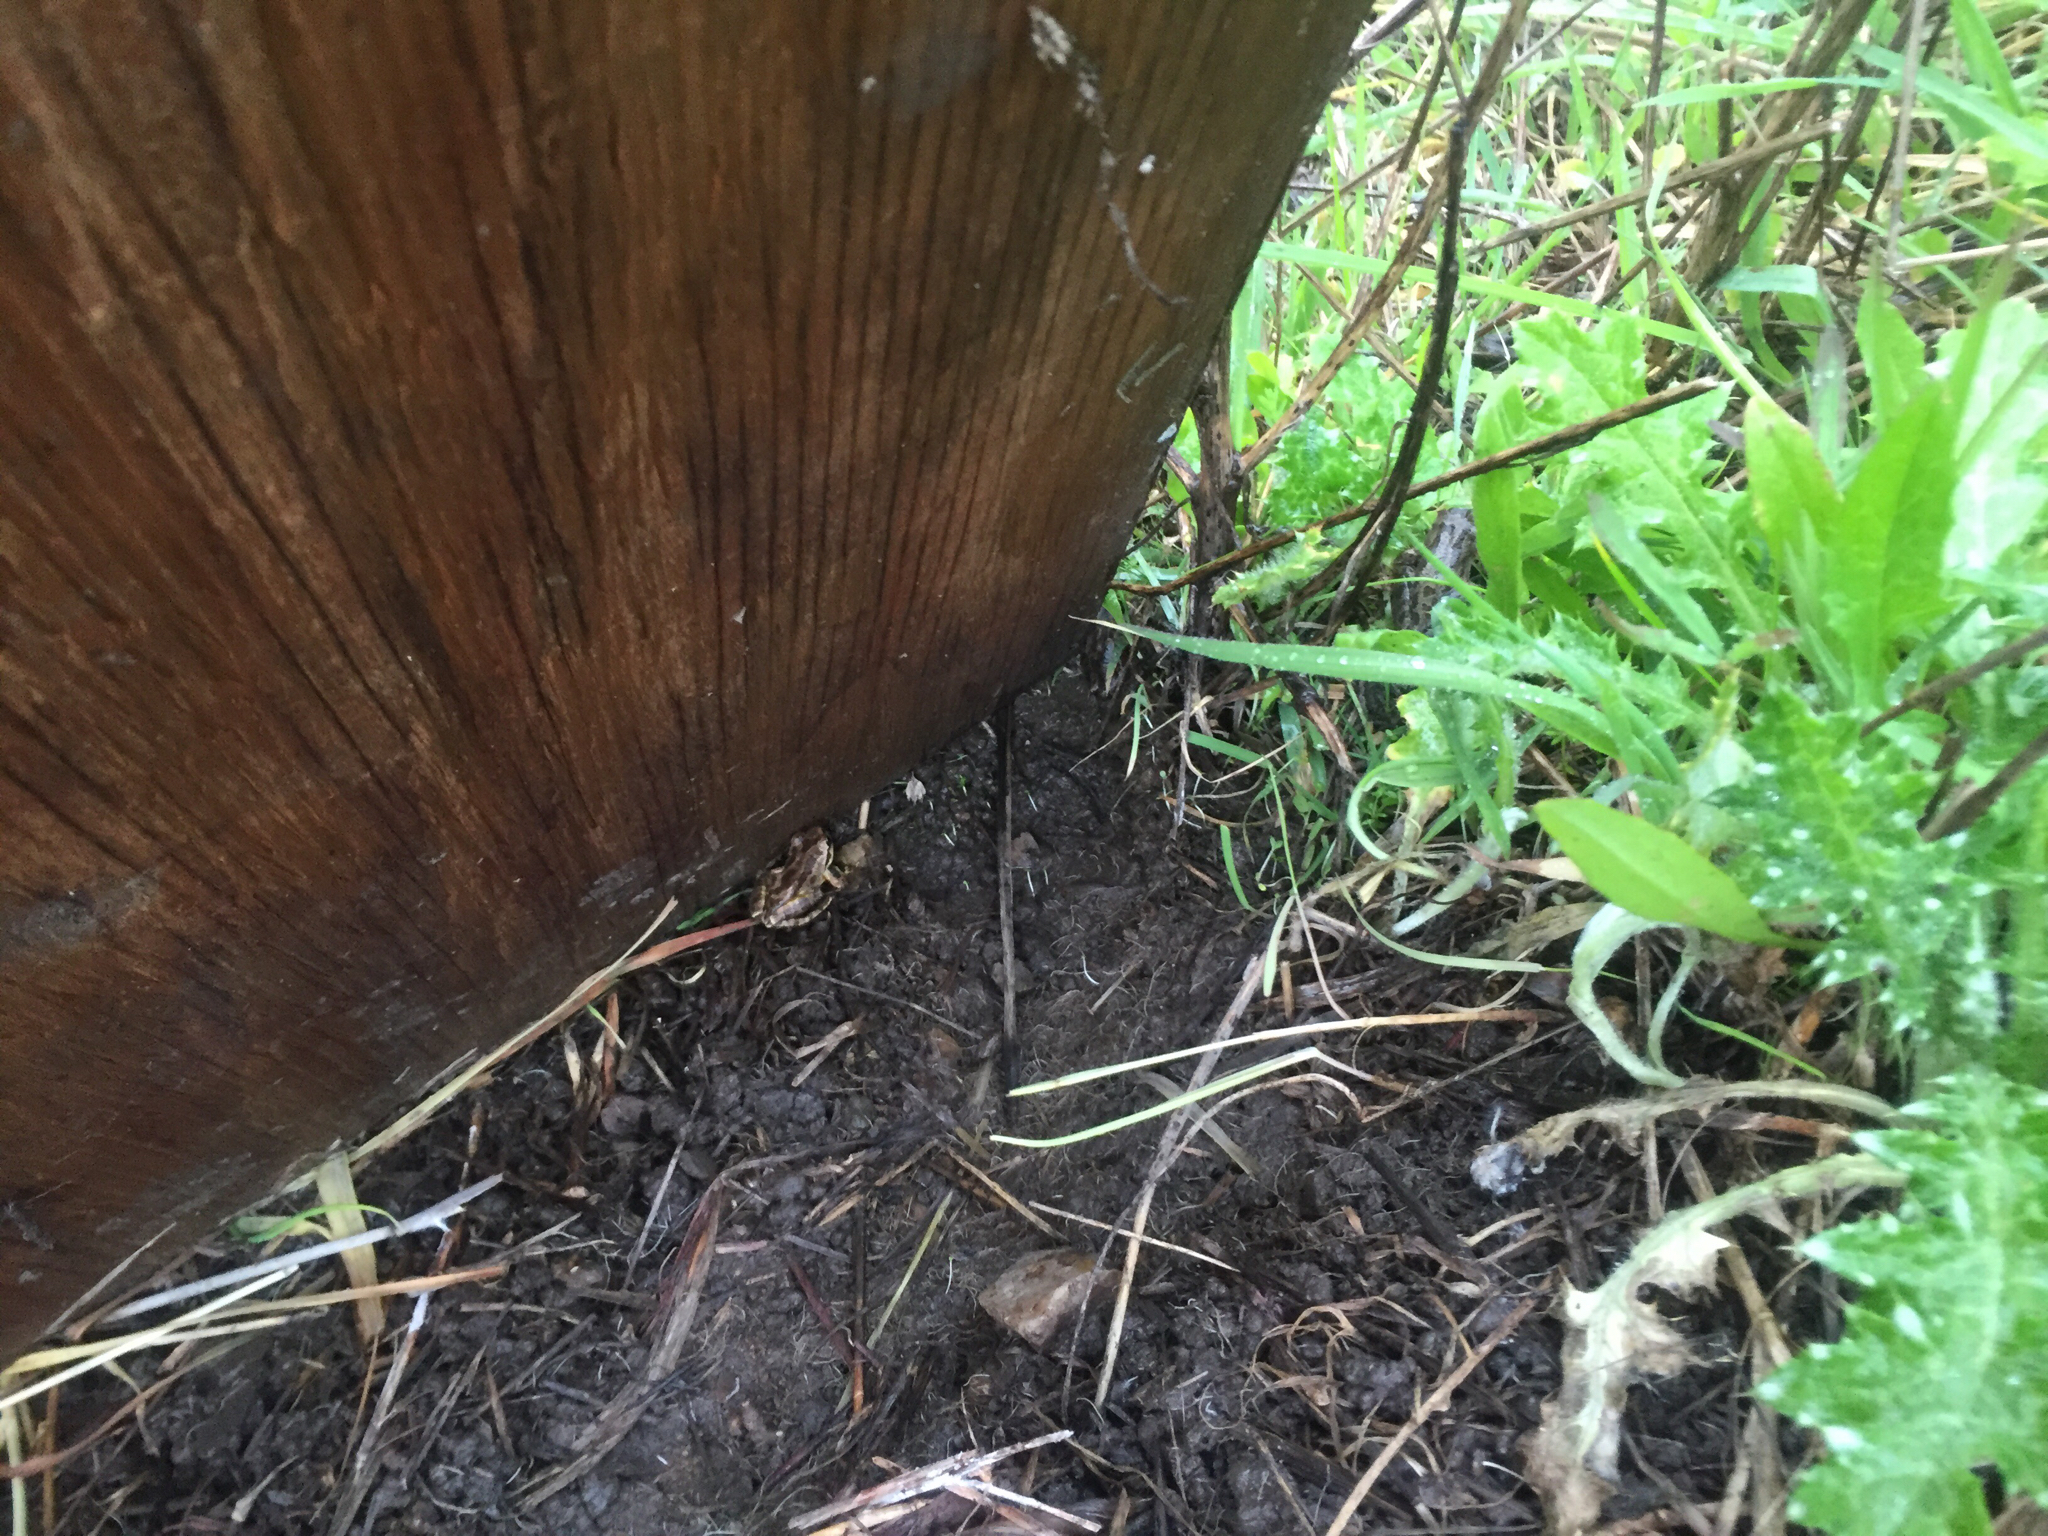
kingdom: Animalia
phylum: Chordata
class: Amphibia
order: Anura
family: Hylidae
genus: Pseudacris
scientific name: Pseudacris regilla
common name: Pacific chorus frog
